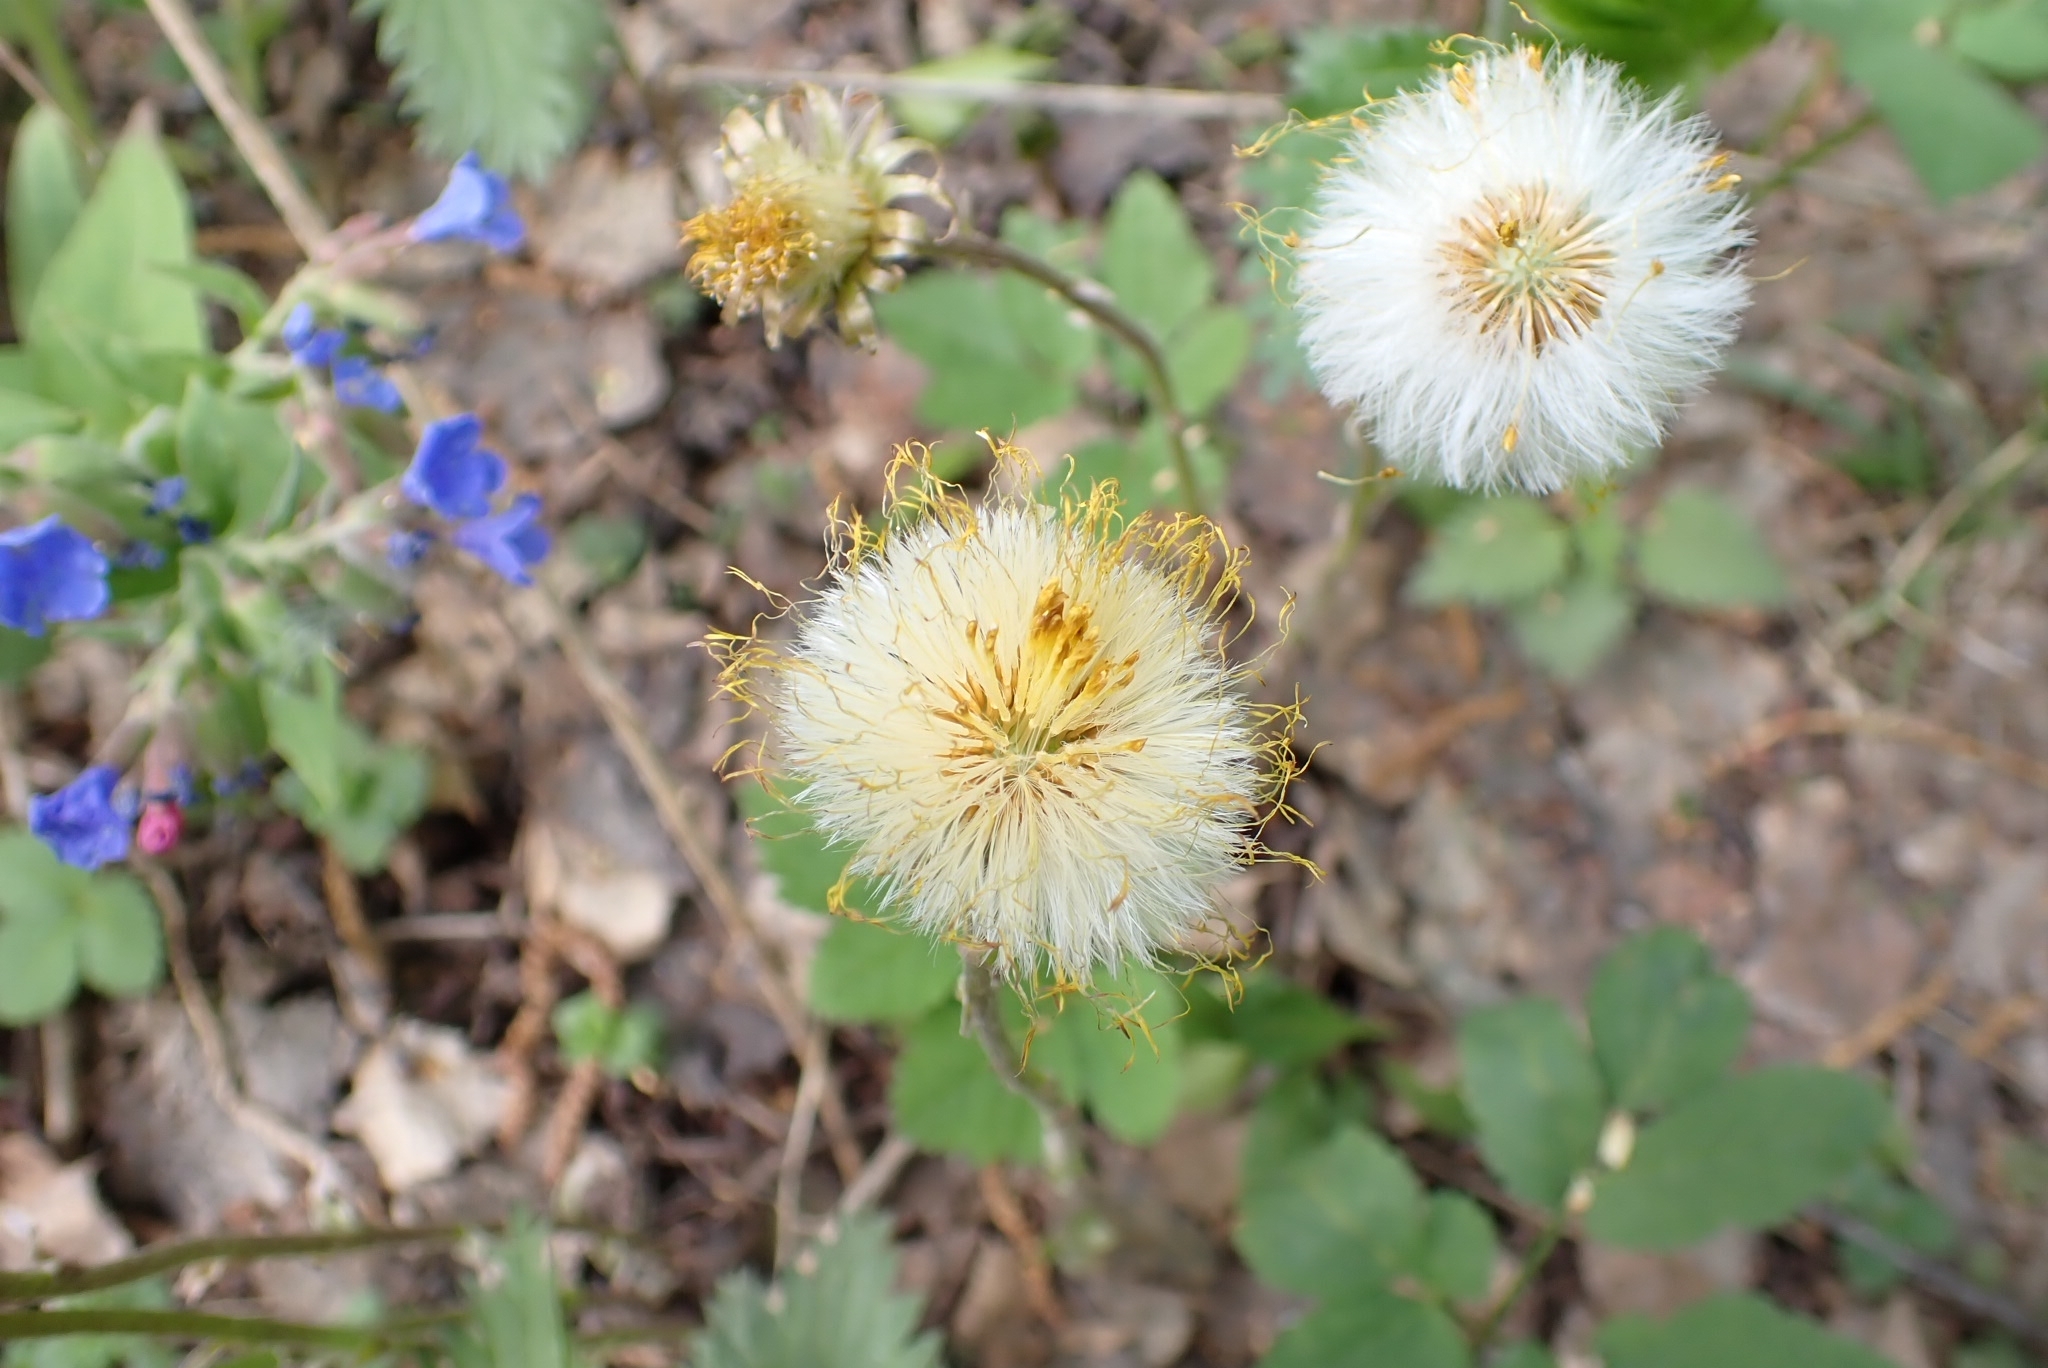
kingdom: Plantae
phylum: Tracheophyta
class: Magnoliopsida
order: Asterales
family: Asteraceae
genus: Tussilago
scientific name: Tussilago farfara
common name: Coltsfoot
